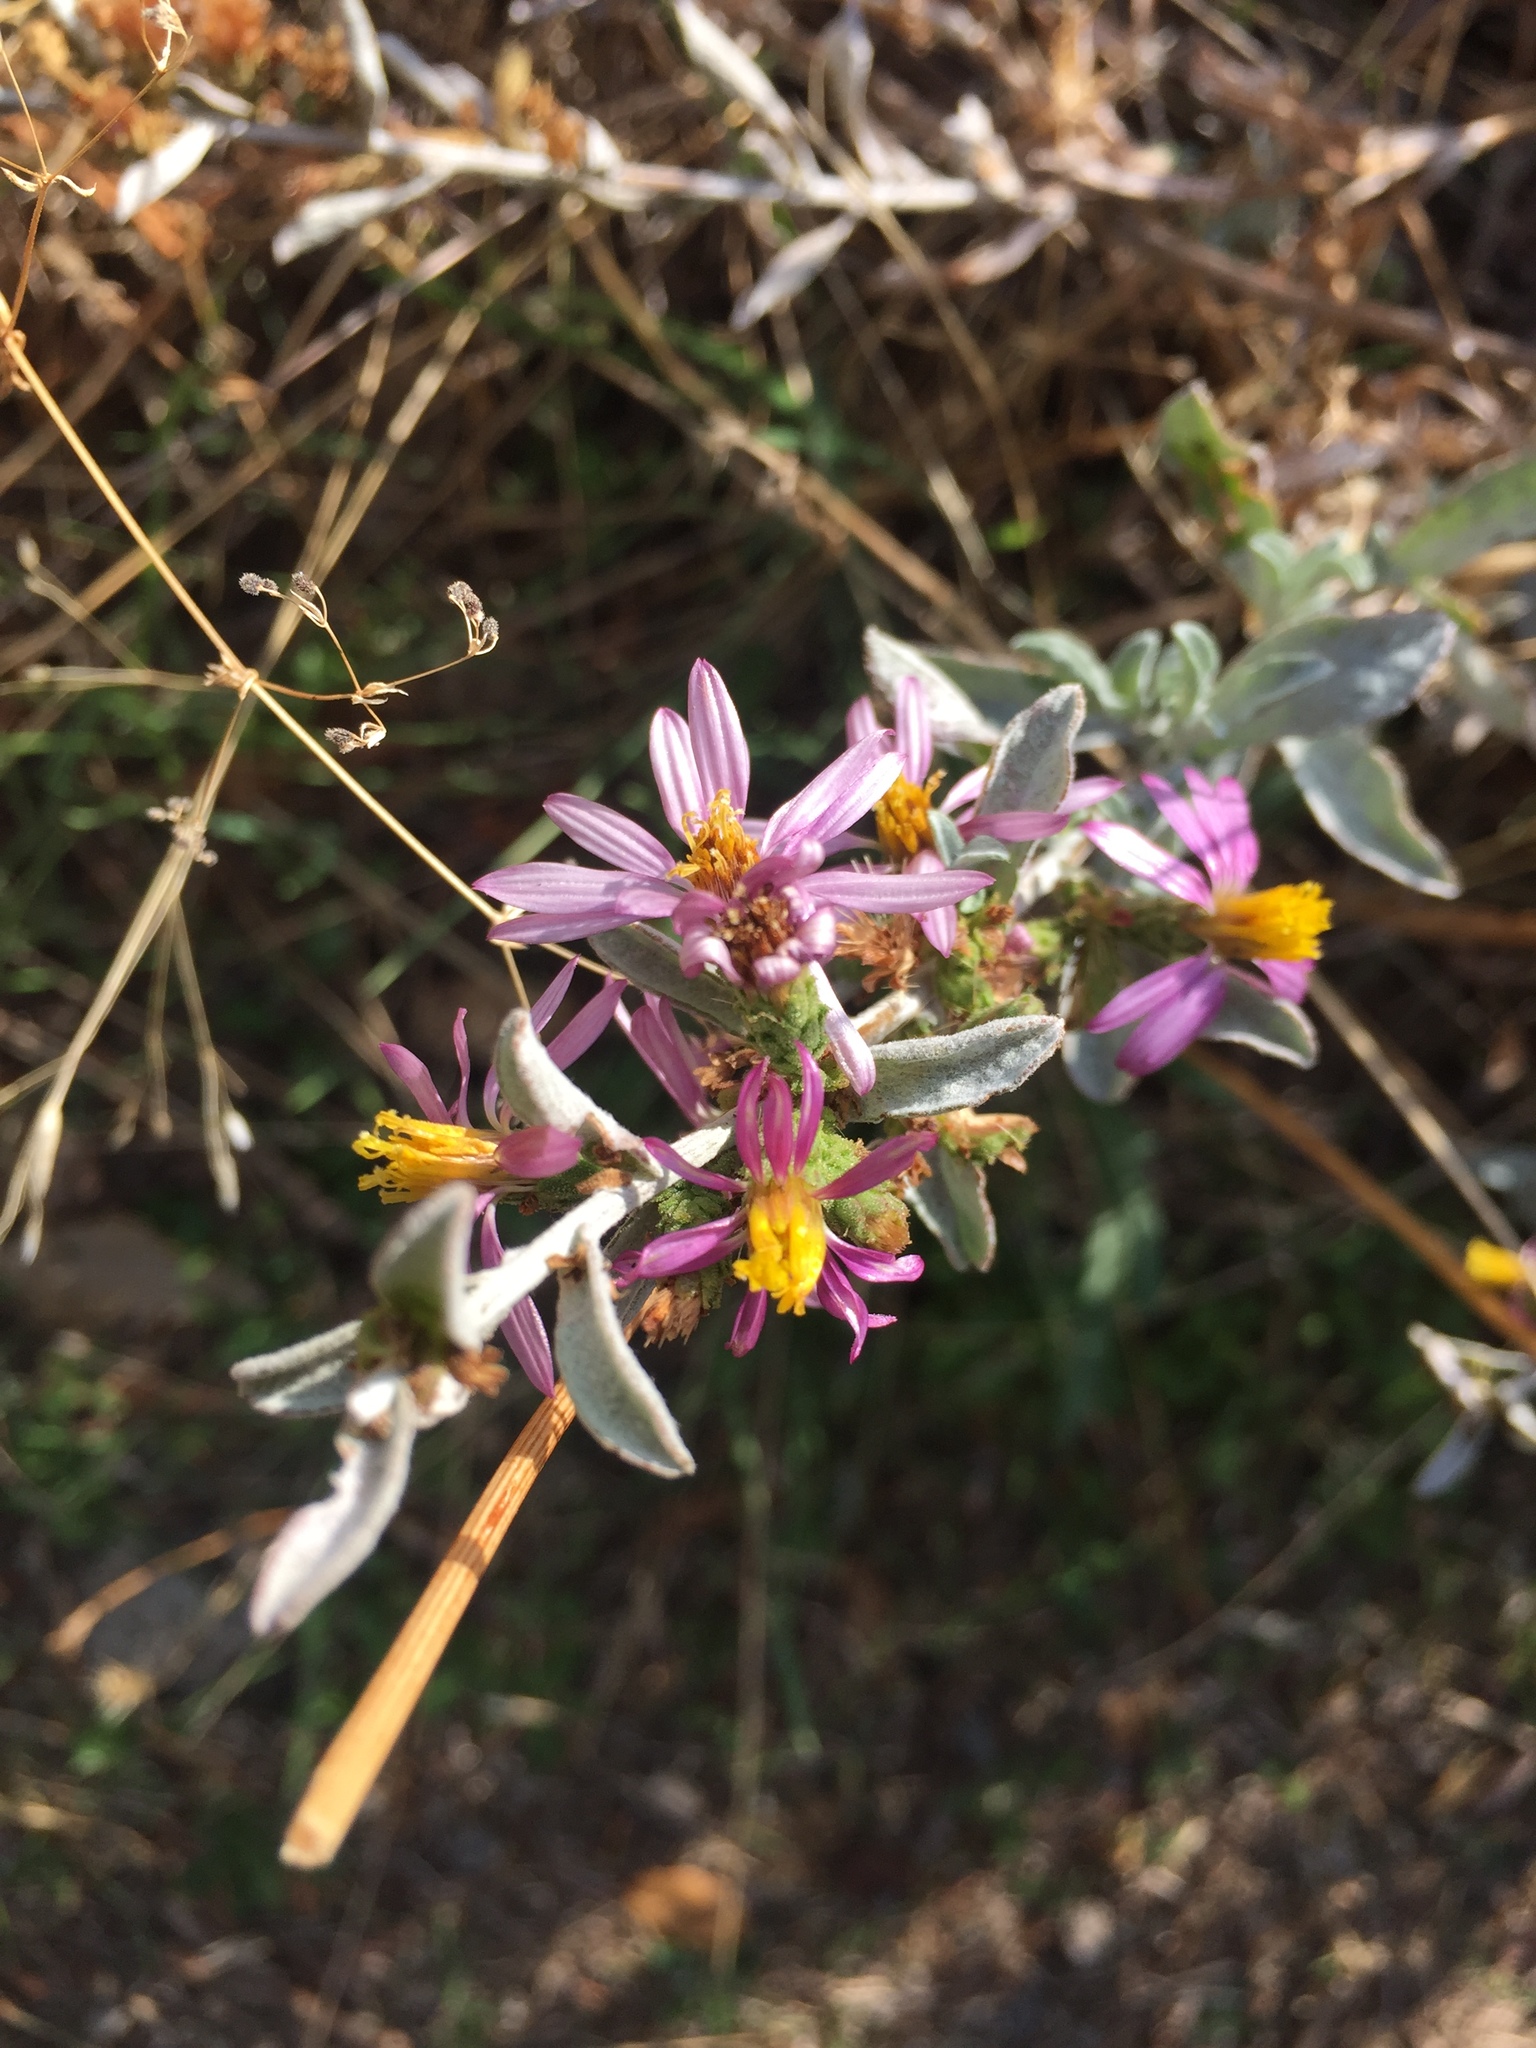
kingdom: Plantae
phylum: Tracheophyta
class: Magnoliopsida
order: Asterales
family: Asteraceae
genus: Dieteria
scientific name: Dieteria canescens
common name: Hoary-aster
